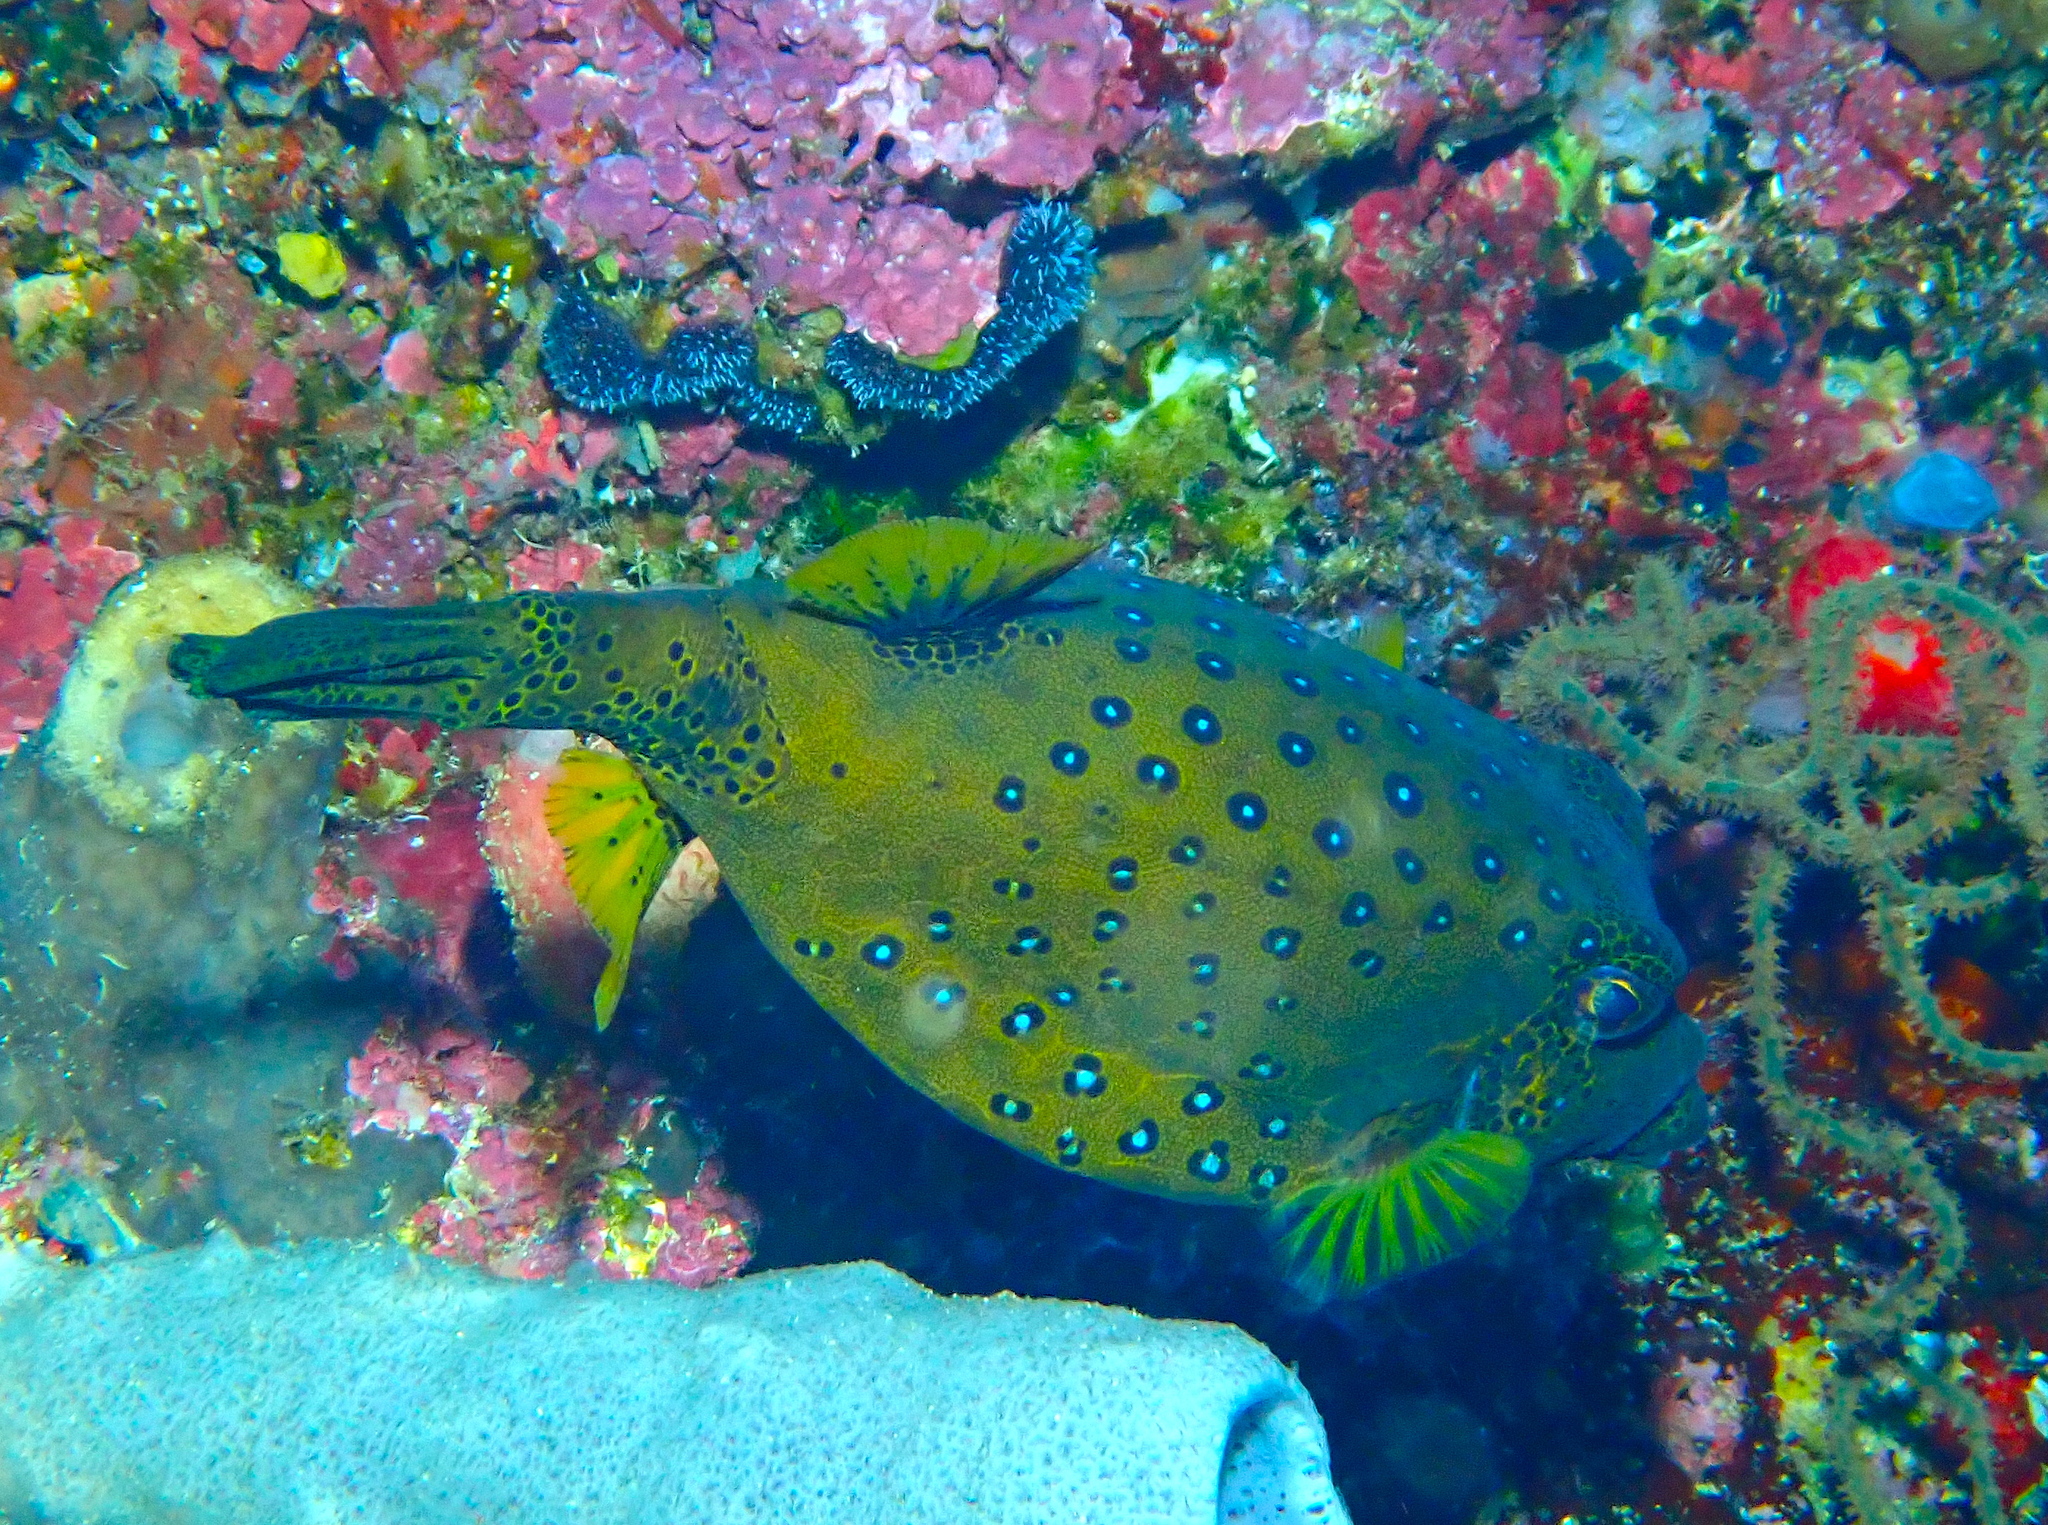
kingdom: Animalia
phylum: Chordata
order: Tetraodontiformes
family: Ostraciidae
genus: Ostracion
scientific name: Ostracion cubicus
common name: Cube trunkfish
